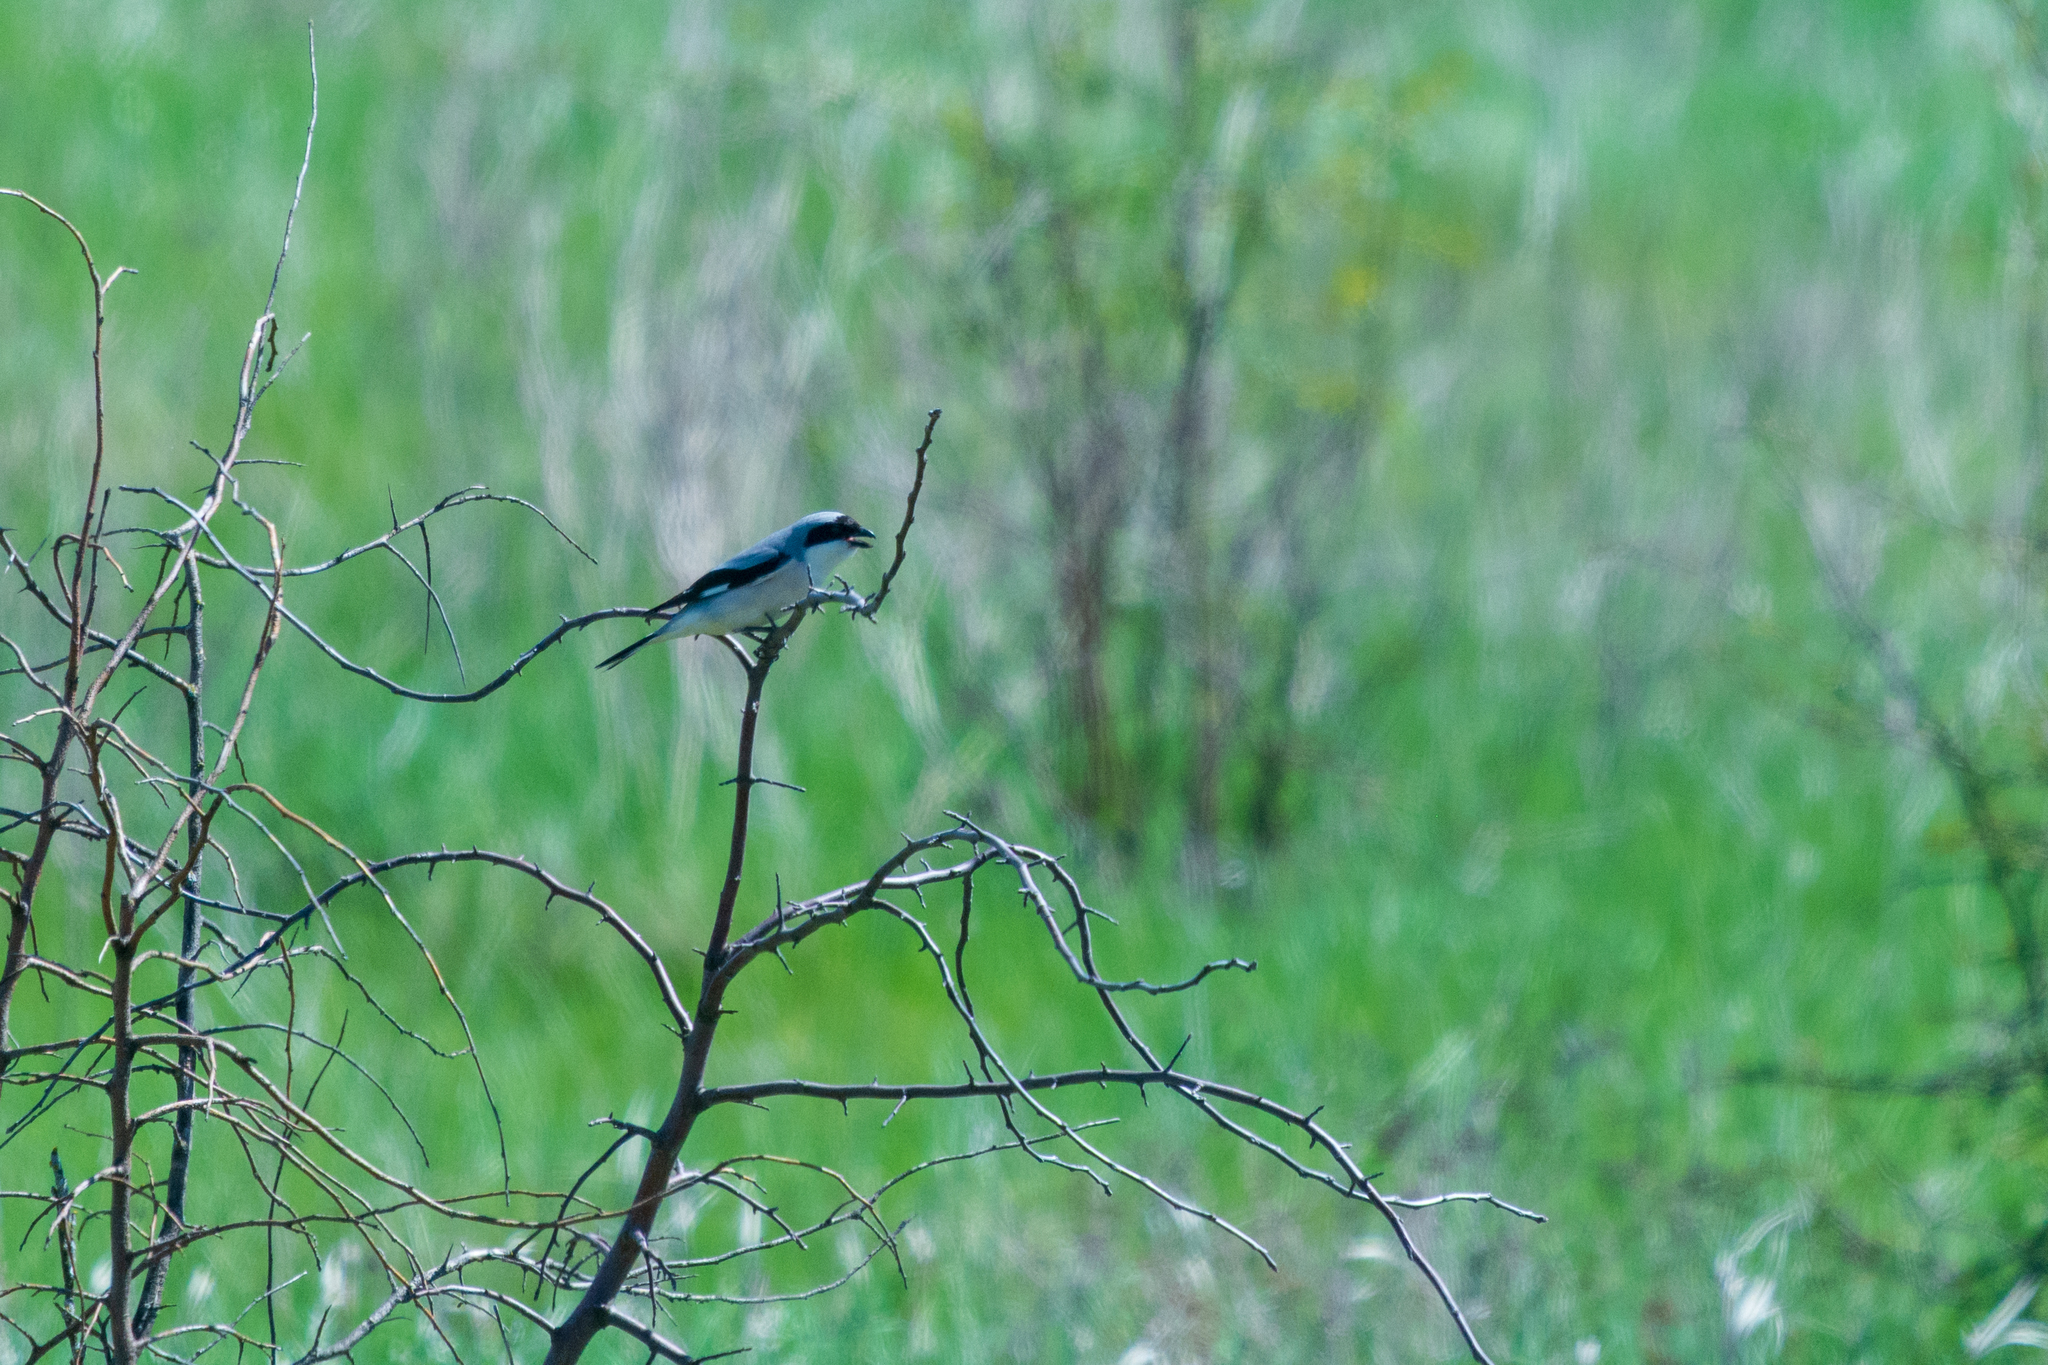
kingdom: Animalia
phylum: Chordata
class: Aves
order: Passeriformes
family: Laniidae
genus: Lanius
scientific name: Lanius minor
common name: Lesser grey shrike
